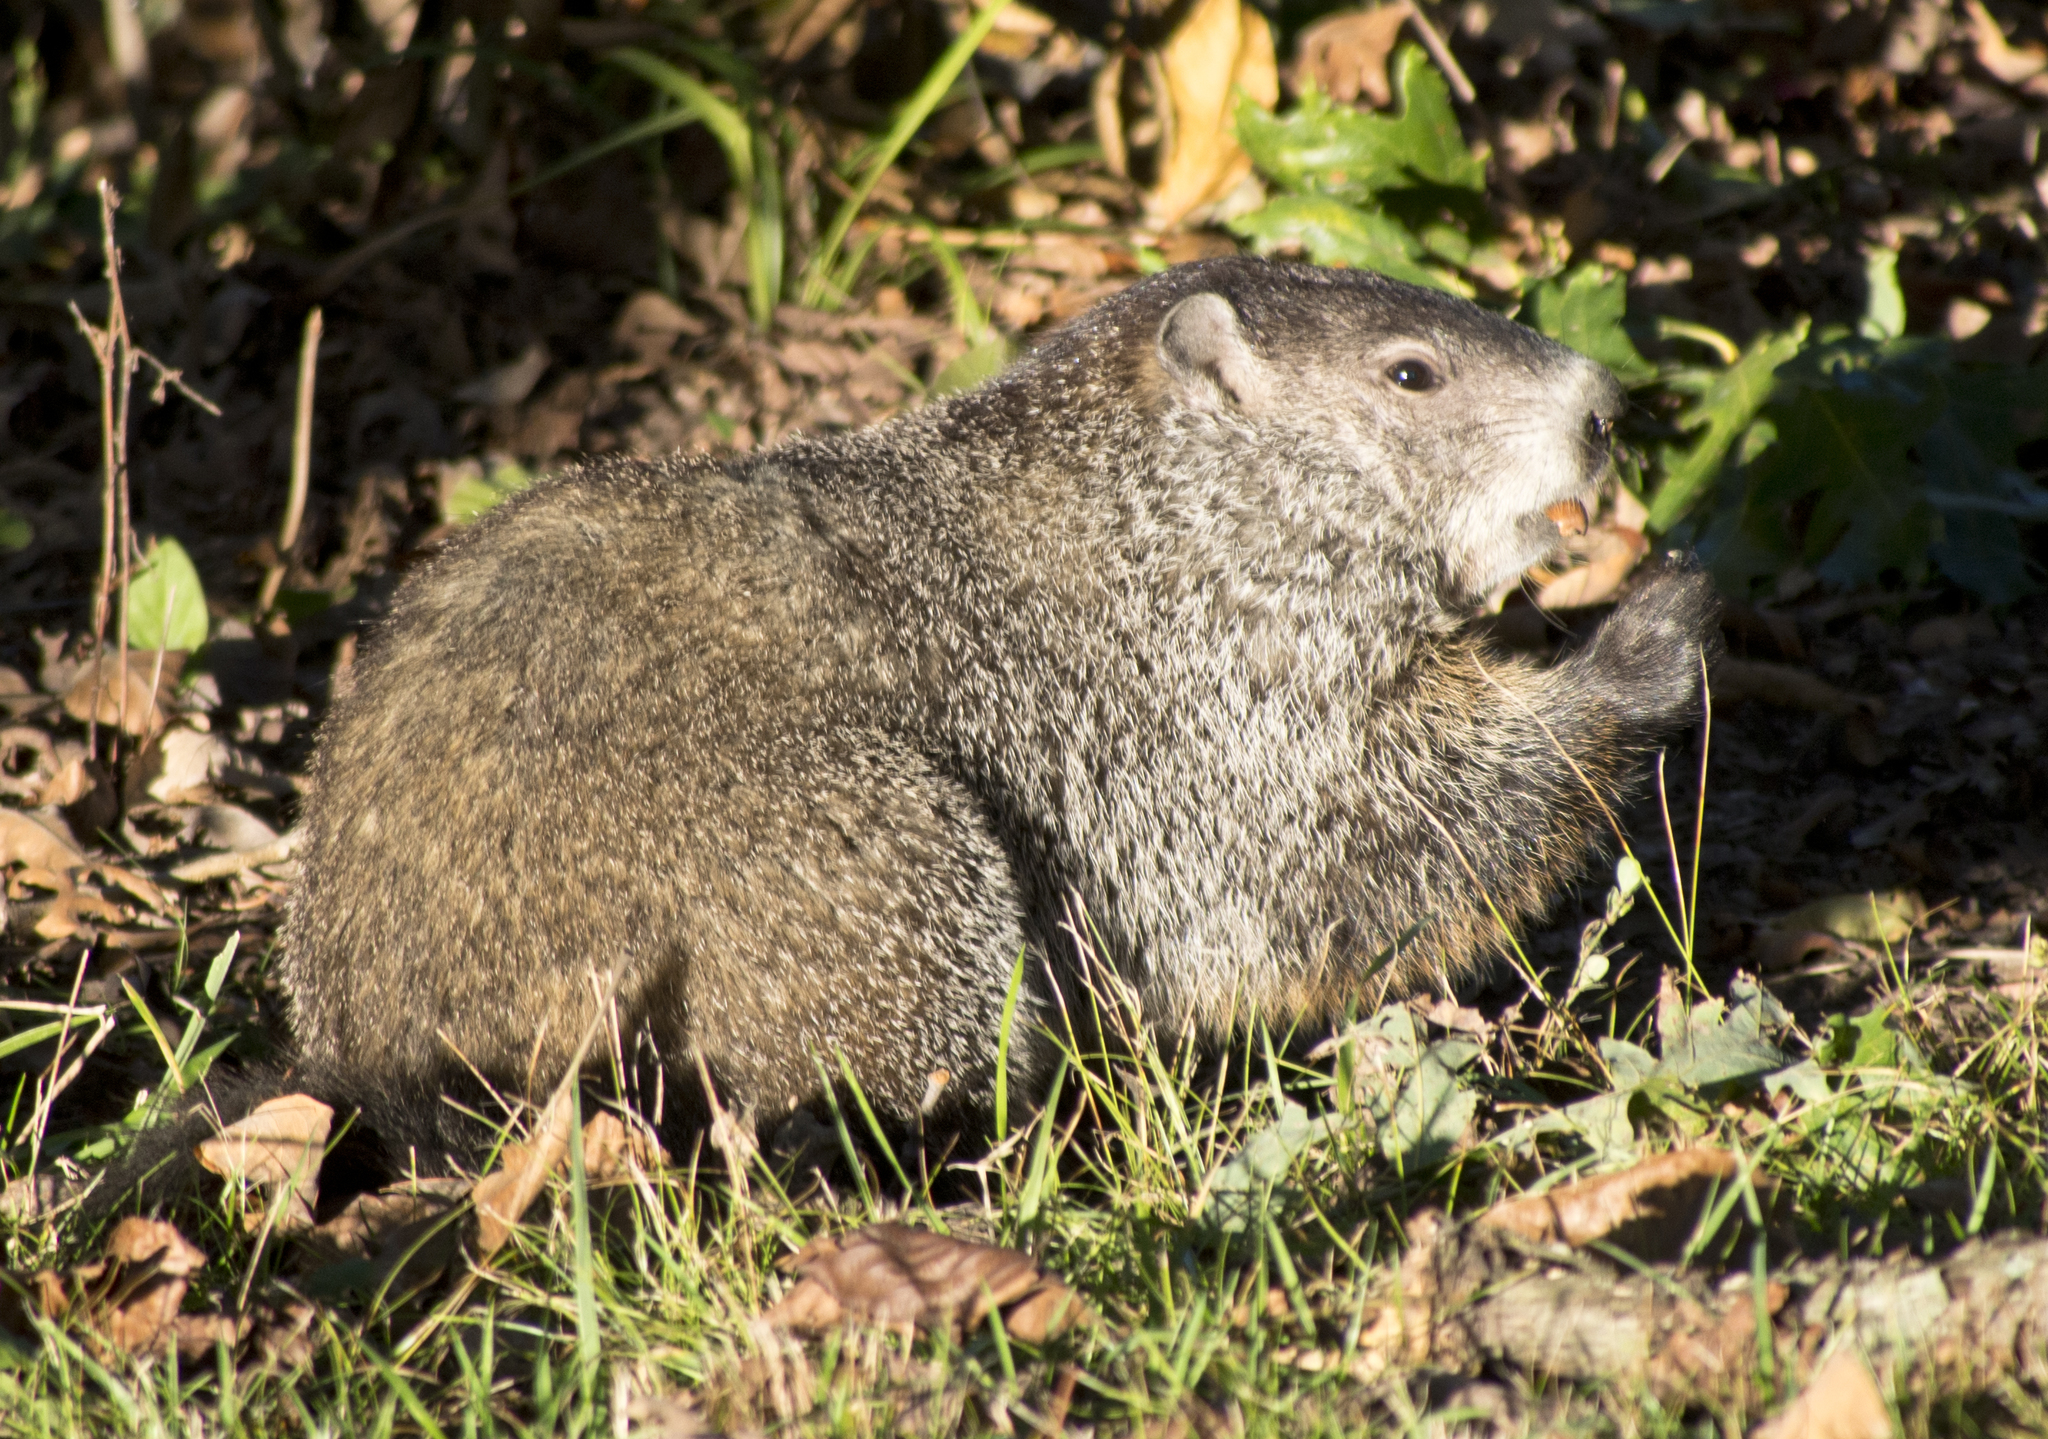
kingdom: Animalia
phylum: Chordata
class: Mammalia
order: Rodentia
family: Sciuridae
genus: Marmota
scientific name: Marmota monax
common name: Groundhog
